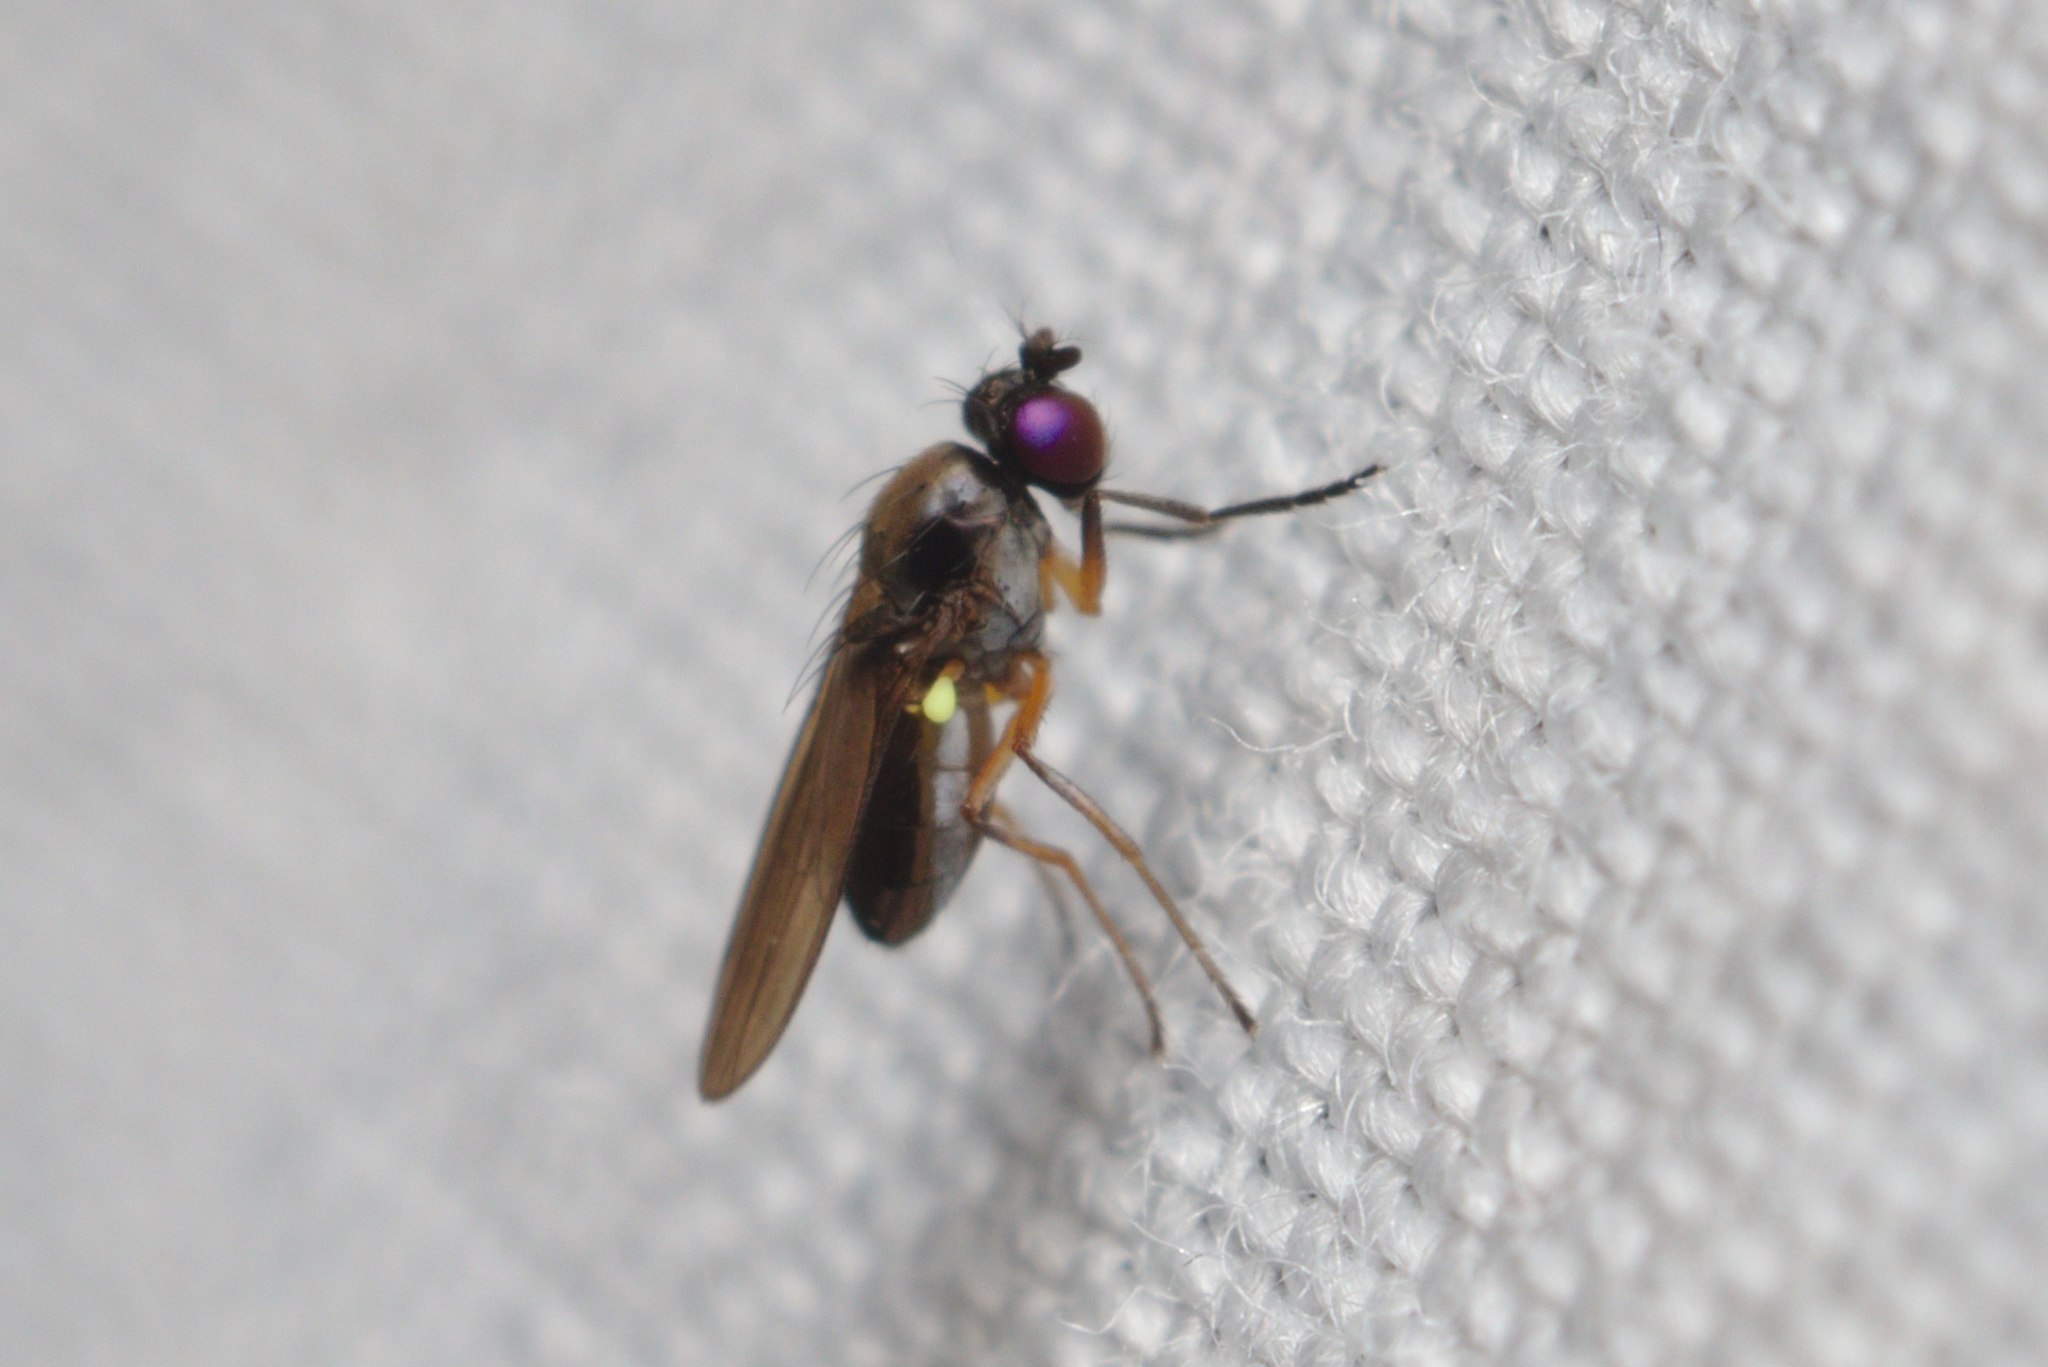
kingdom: Animalia
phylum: Arthropoda
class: Insecta
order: Diptera
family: Ephydridae
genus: Hydrellia
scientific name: Hydrellia tritici
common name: Shore fly
